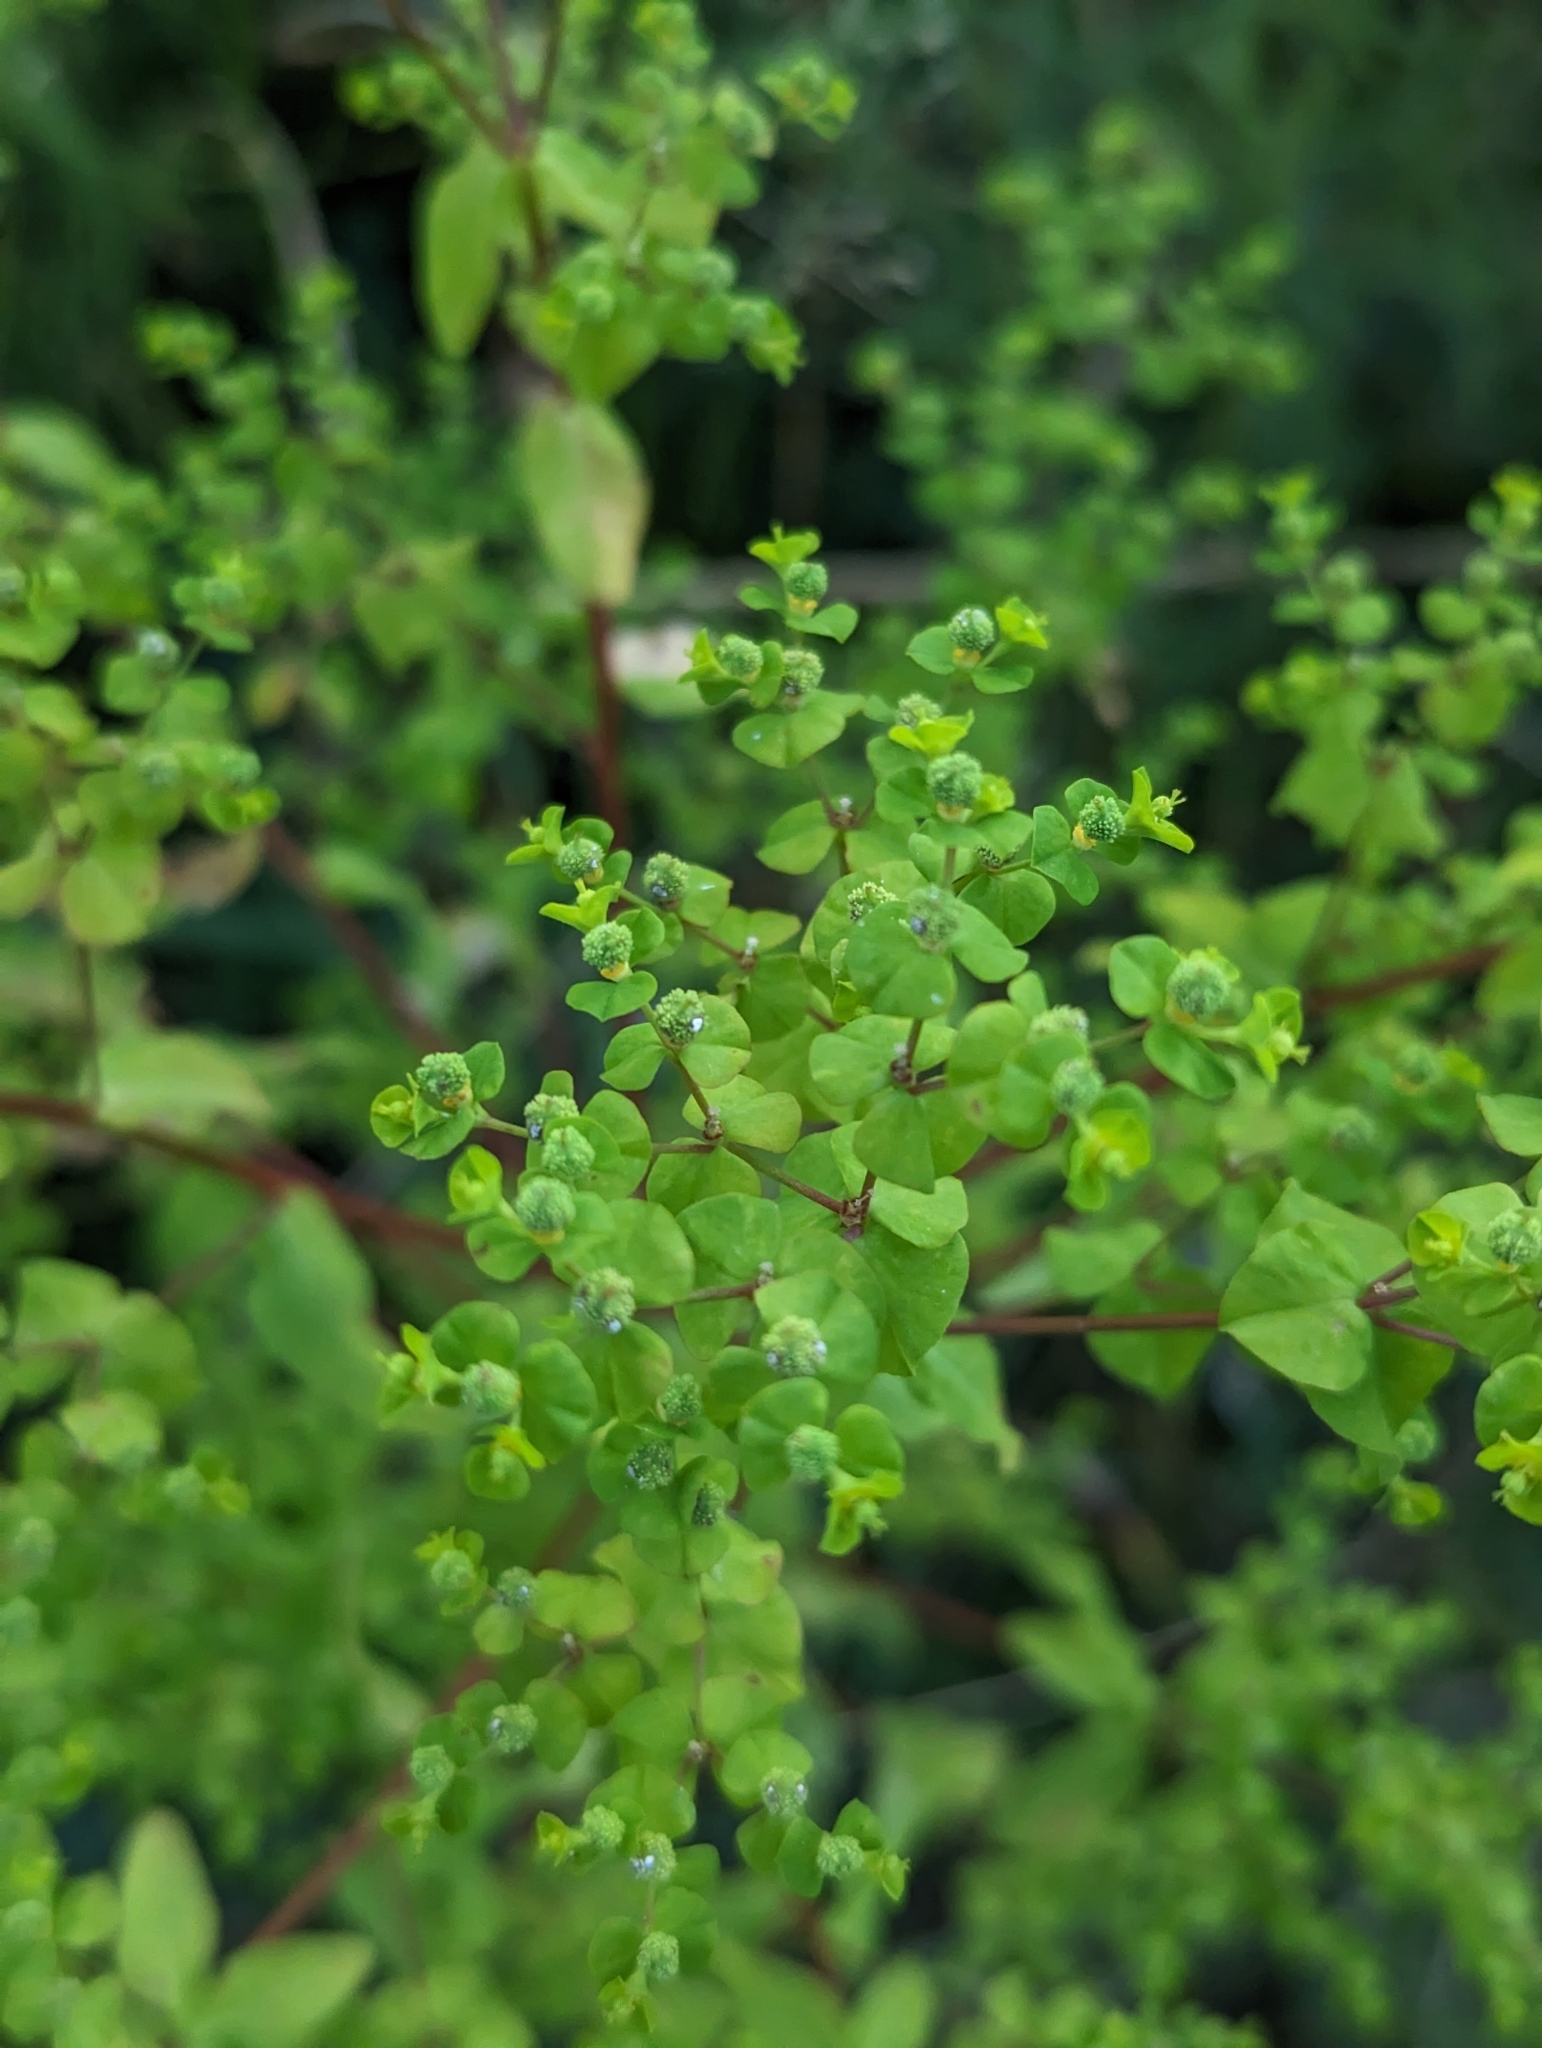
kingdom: Plantae
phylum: Tracheophyta
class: Magnoliopsida
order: Malpighiales
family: Euphorbiaceae
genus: Euphorbia
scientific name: Euphorbia stricta
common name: Upright spurge
